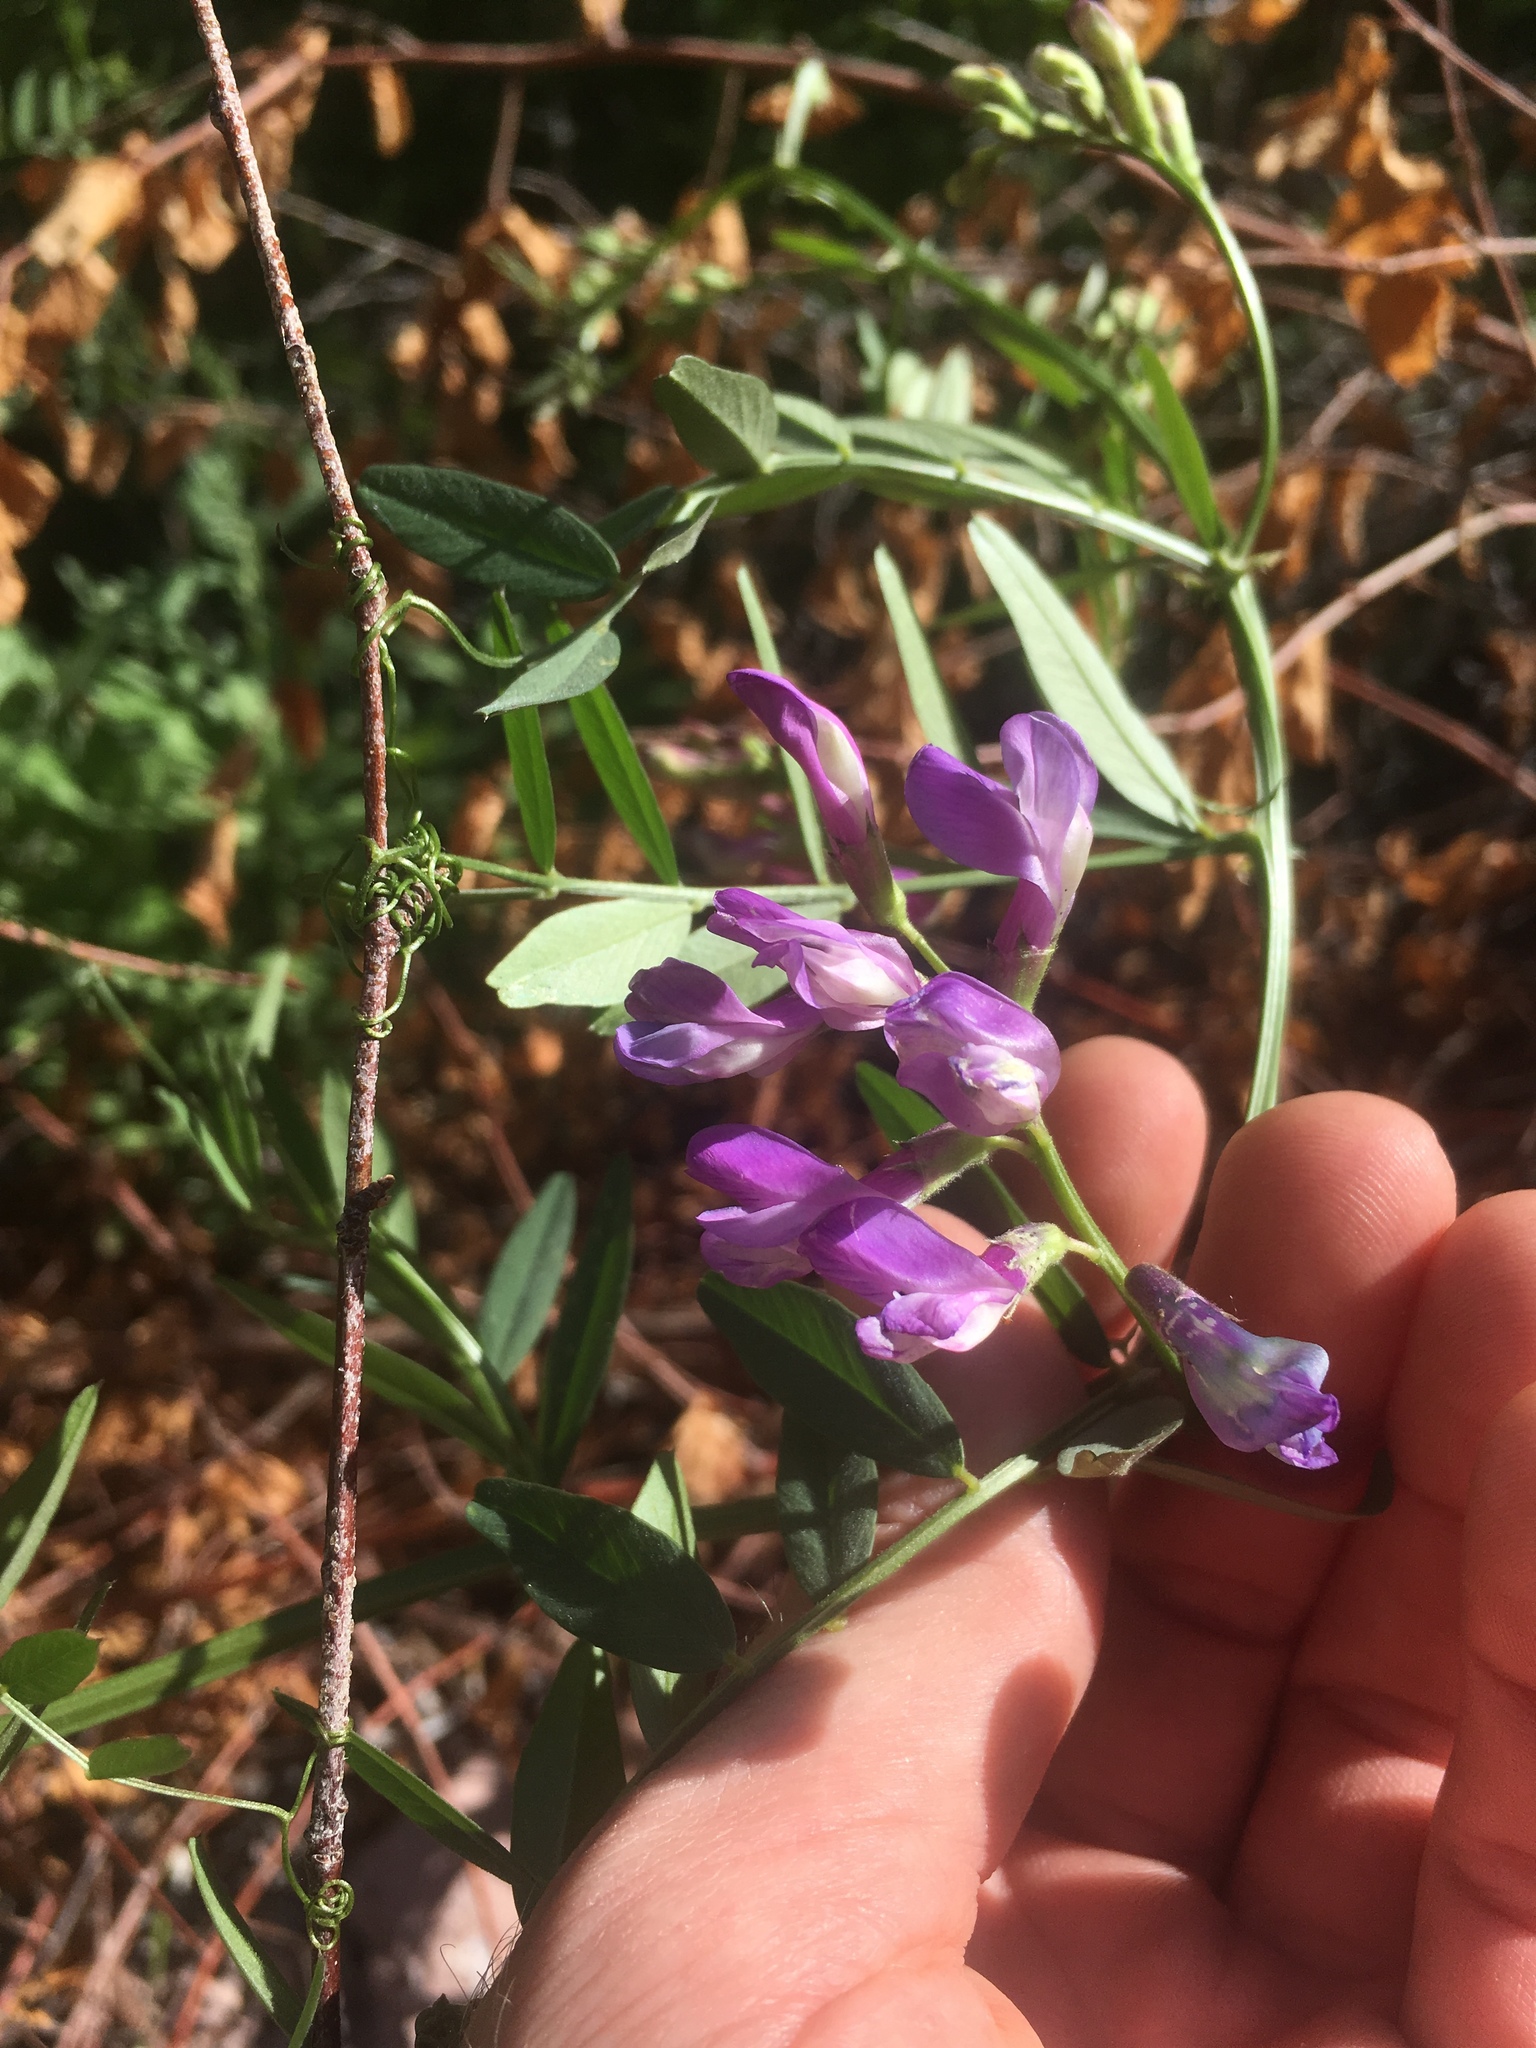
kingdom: Plantae
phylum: Tracheophyta
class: Magnoliopsida
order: Fabales
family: Fabaceae
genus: Vicia
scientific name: Vicia americana
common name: American vetch
